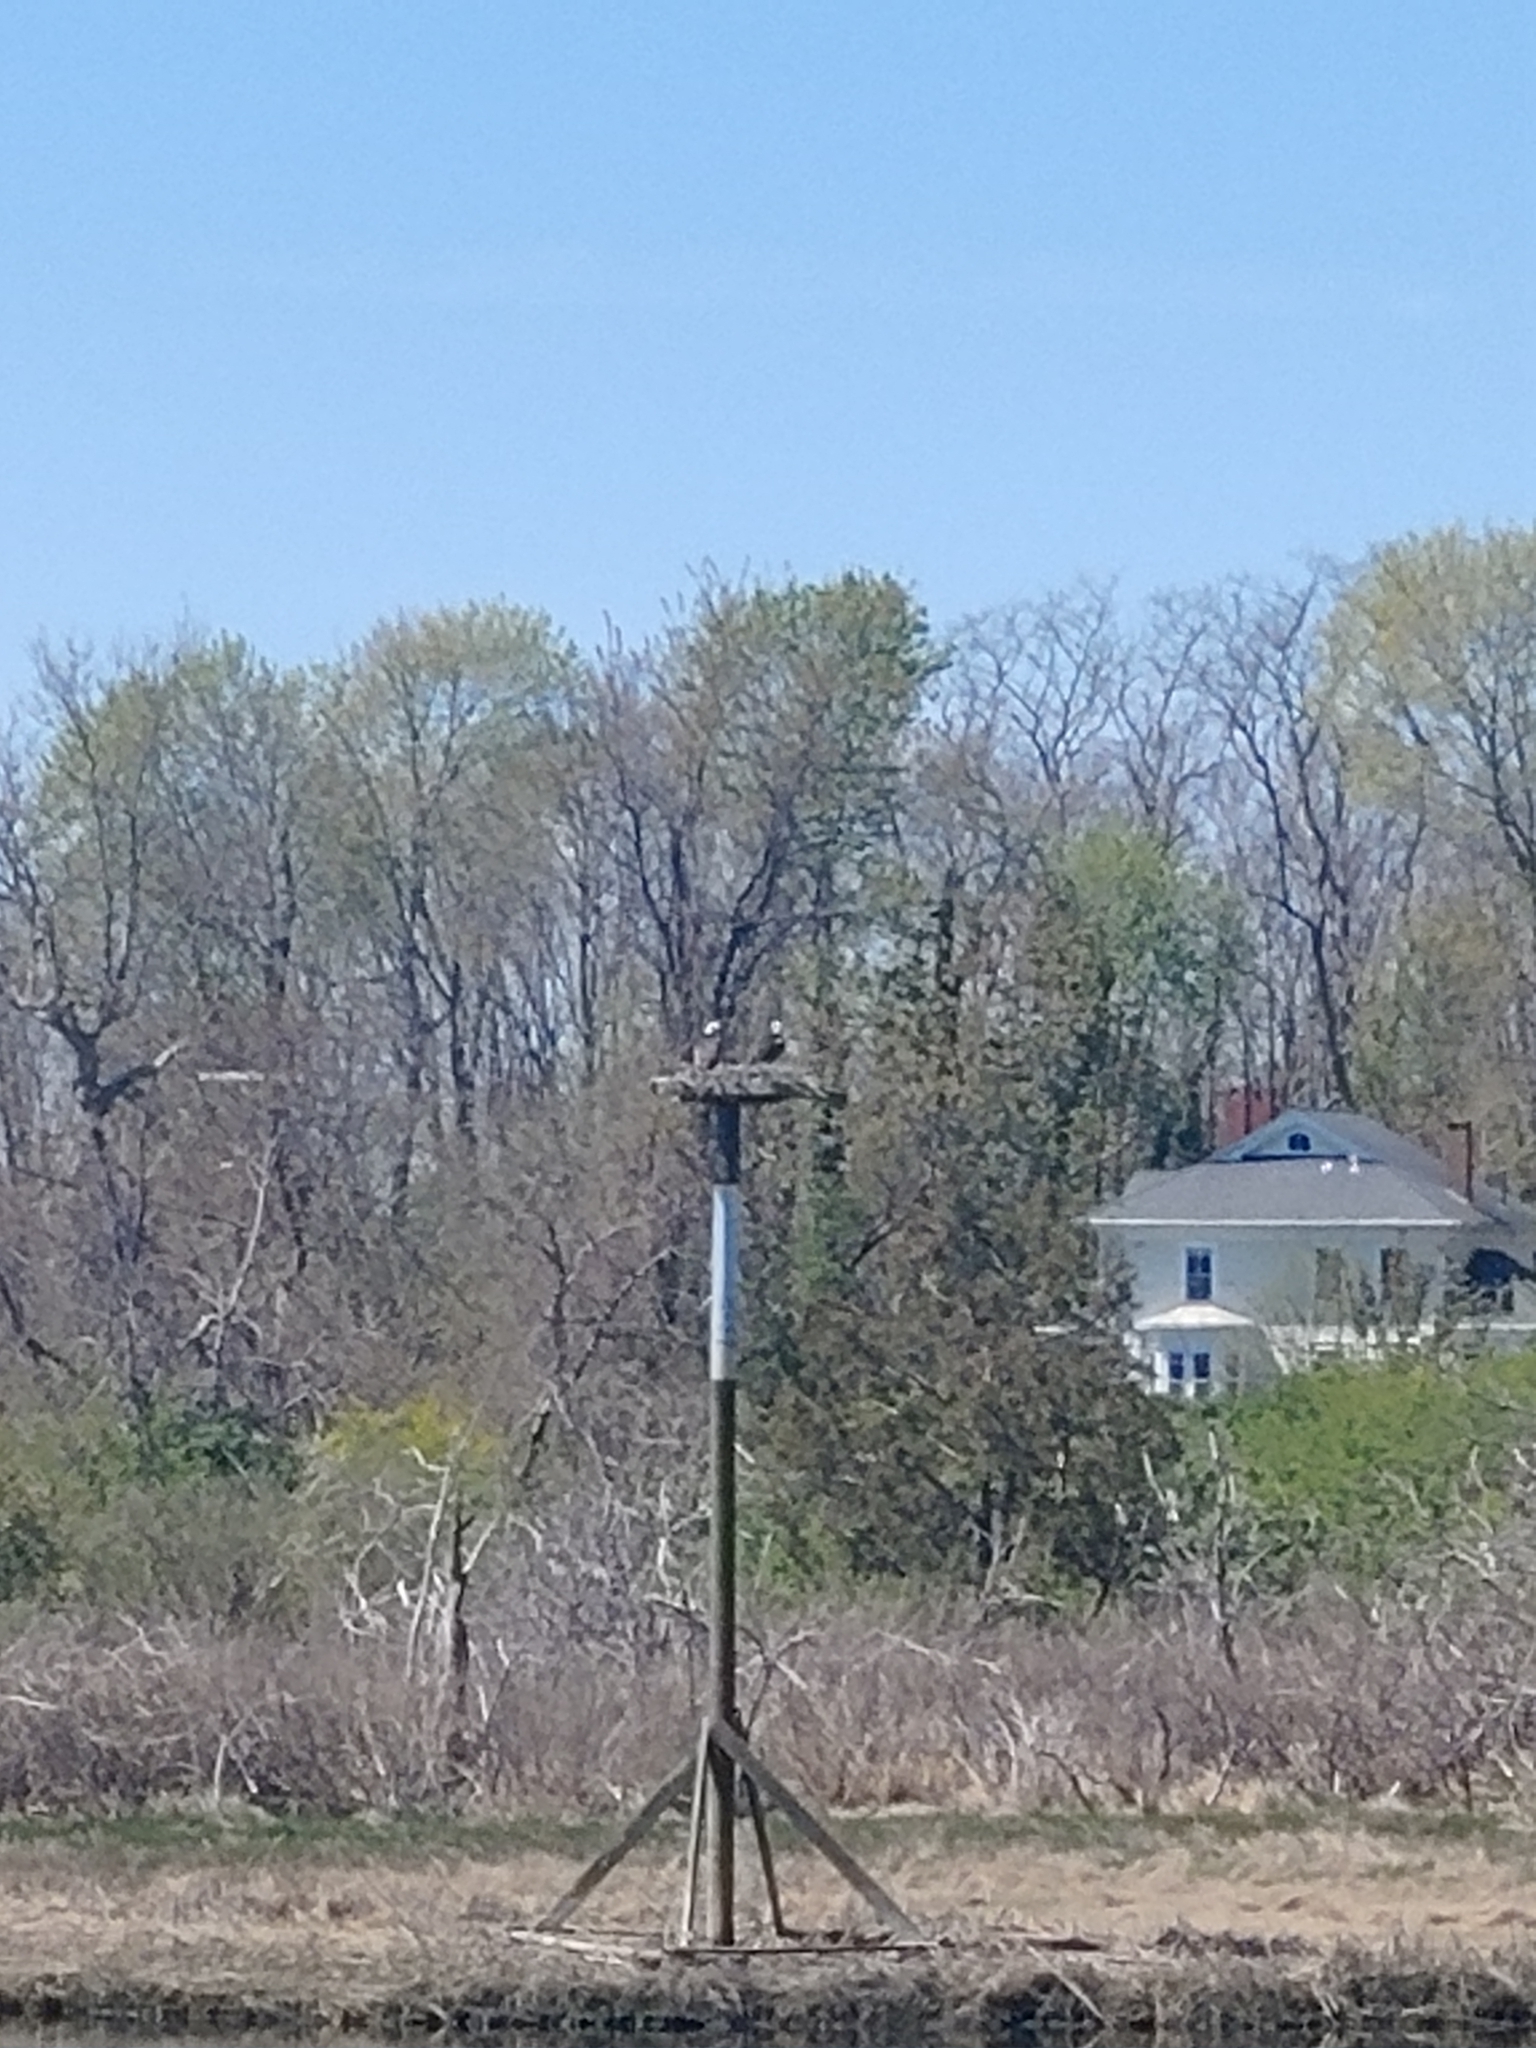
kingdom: Animalia
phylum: Chordata
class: Aves
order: Accipitriformes
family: Pandionidae
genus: Pandion
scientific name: Pandion haliaetus
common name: Osprey
